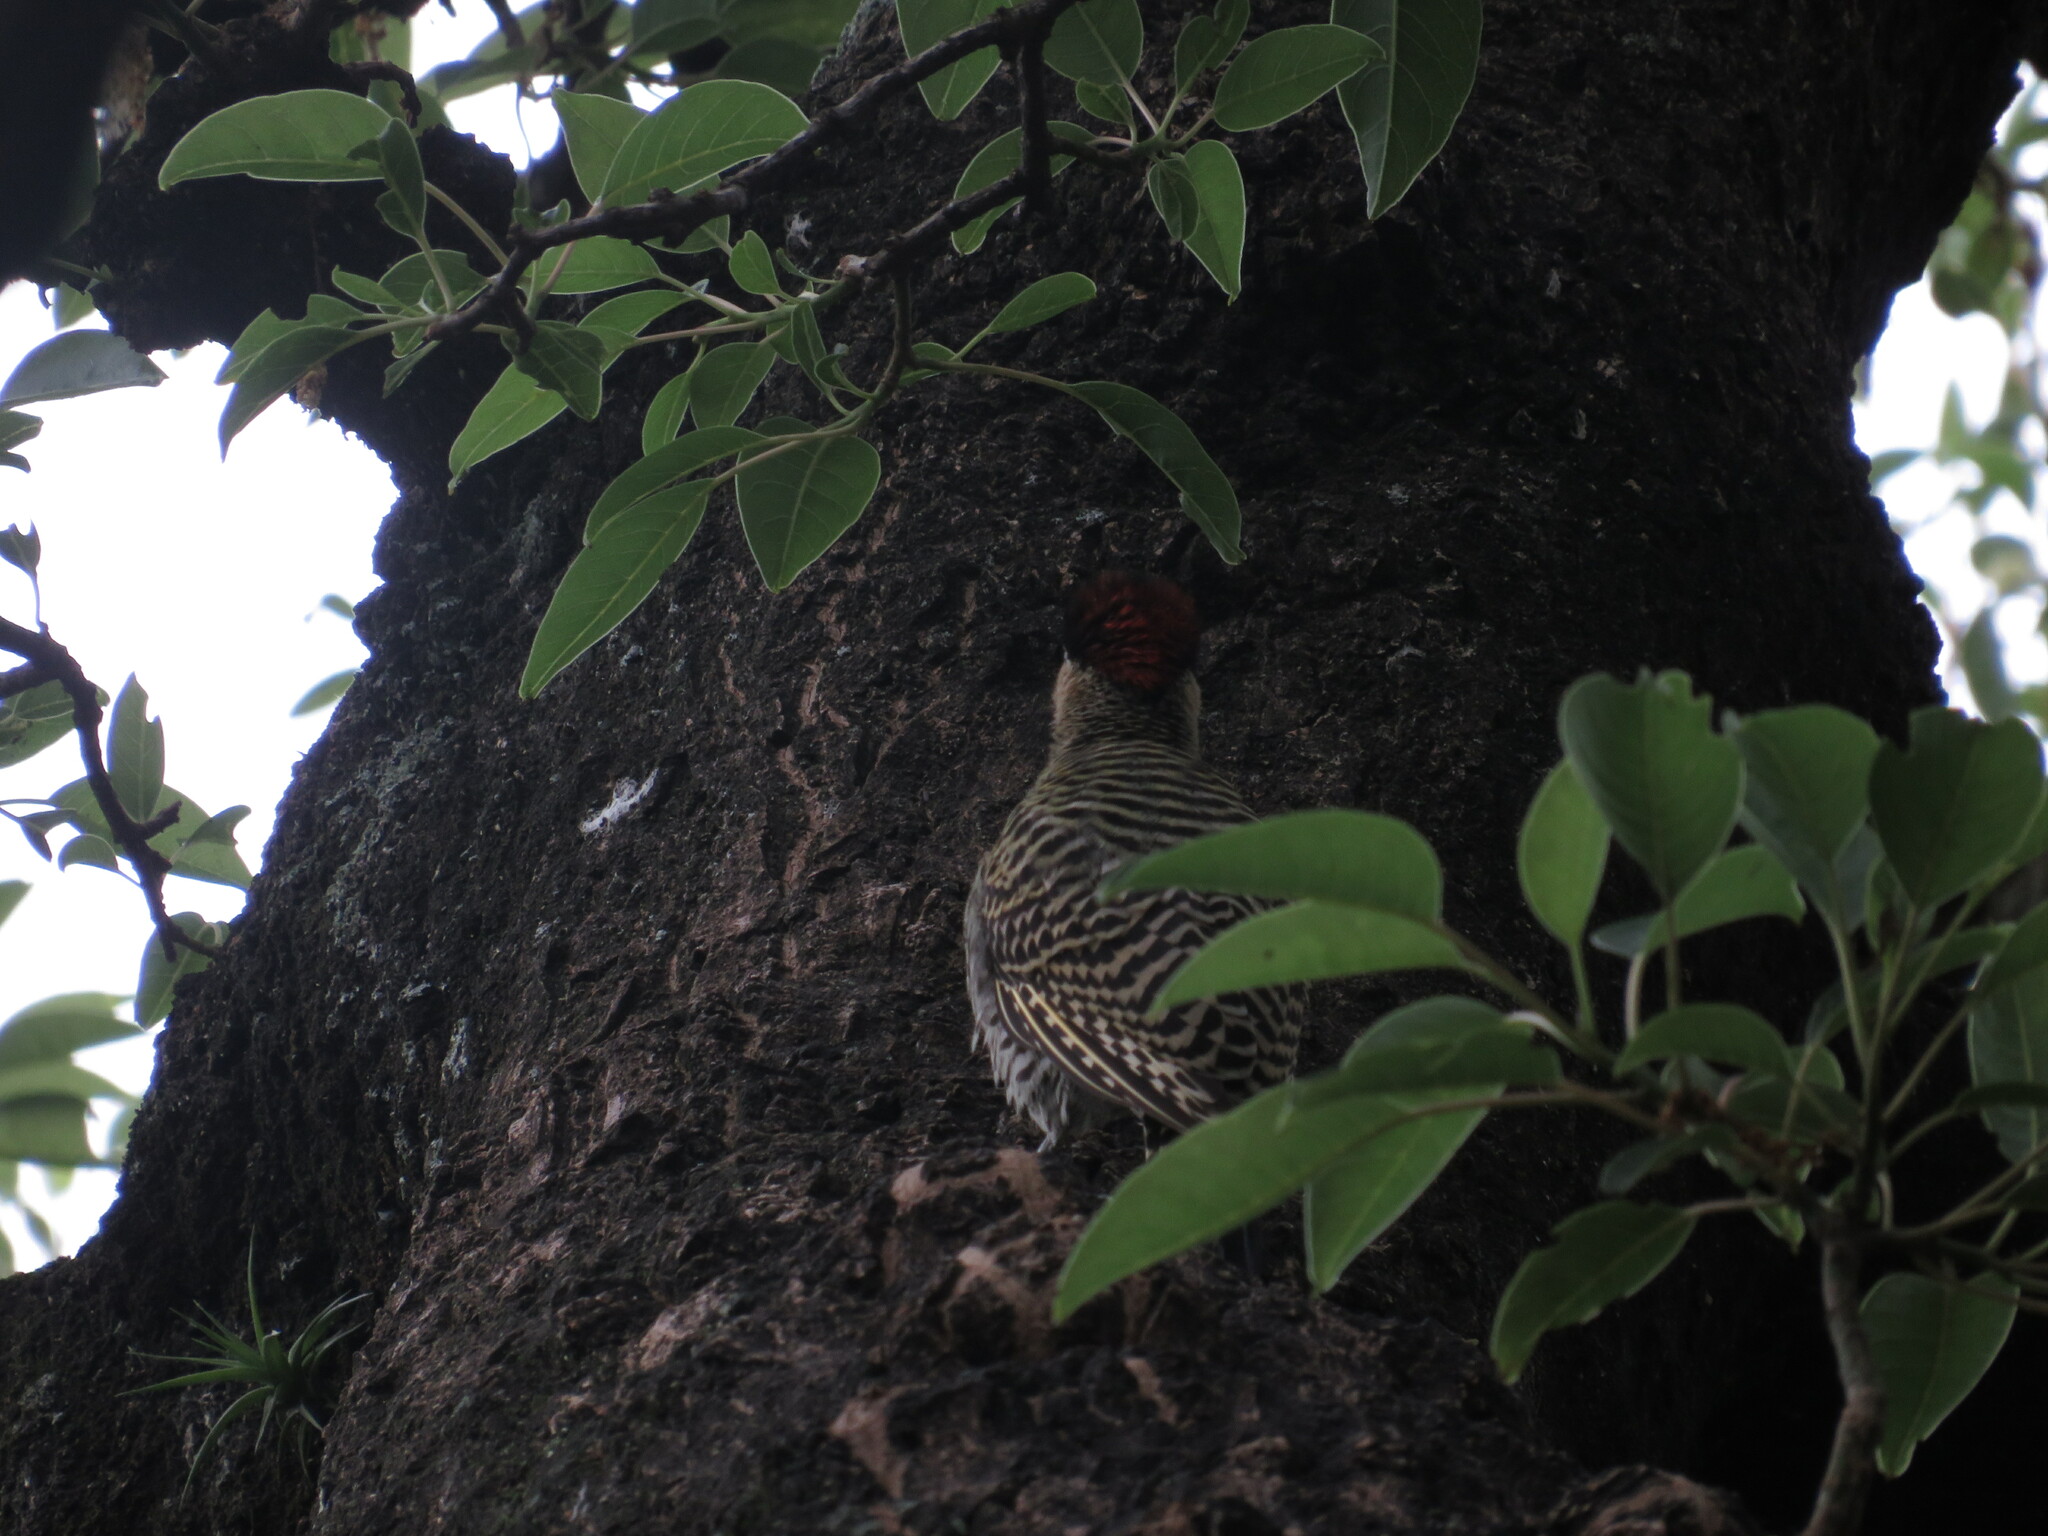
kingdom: Animalia
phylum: Chordata
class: Aves
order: Piciformes
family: Picidae
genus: Colaptes
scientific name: Colaptes melanochloros
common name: Green-barred woodpecker
